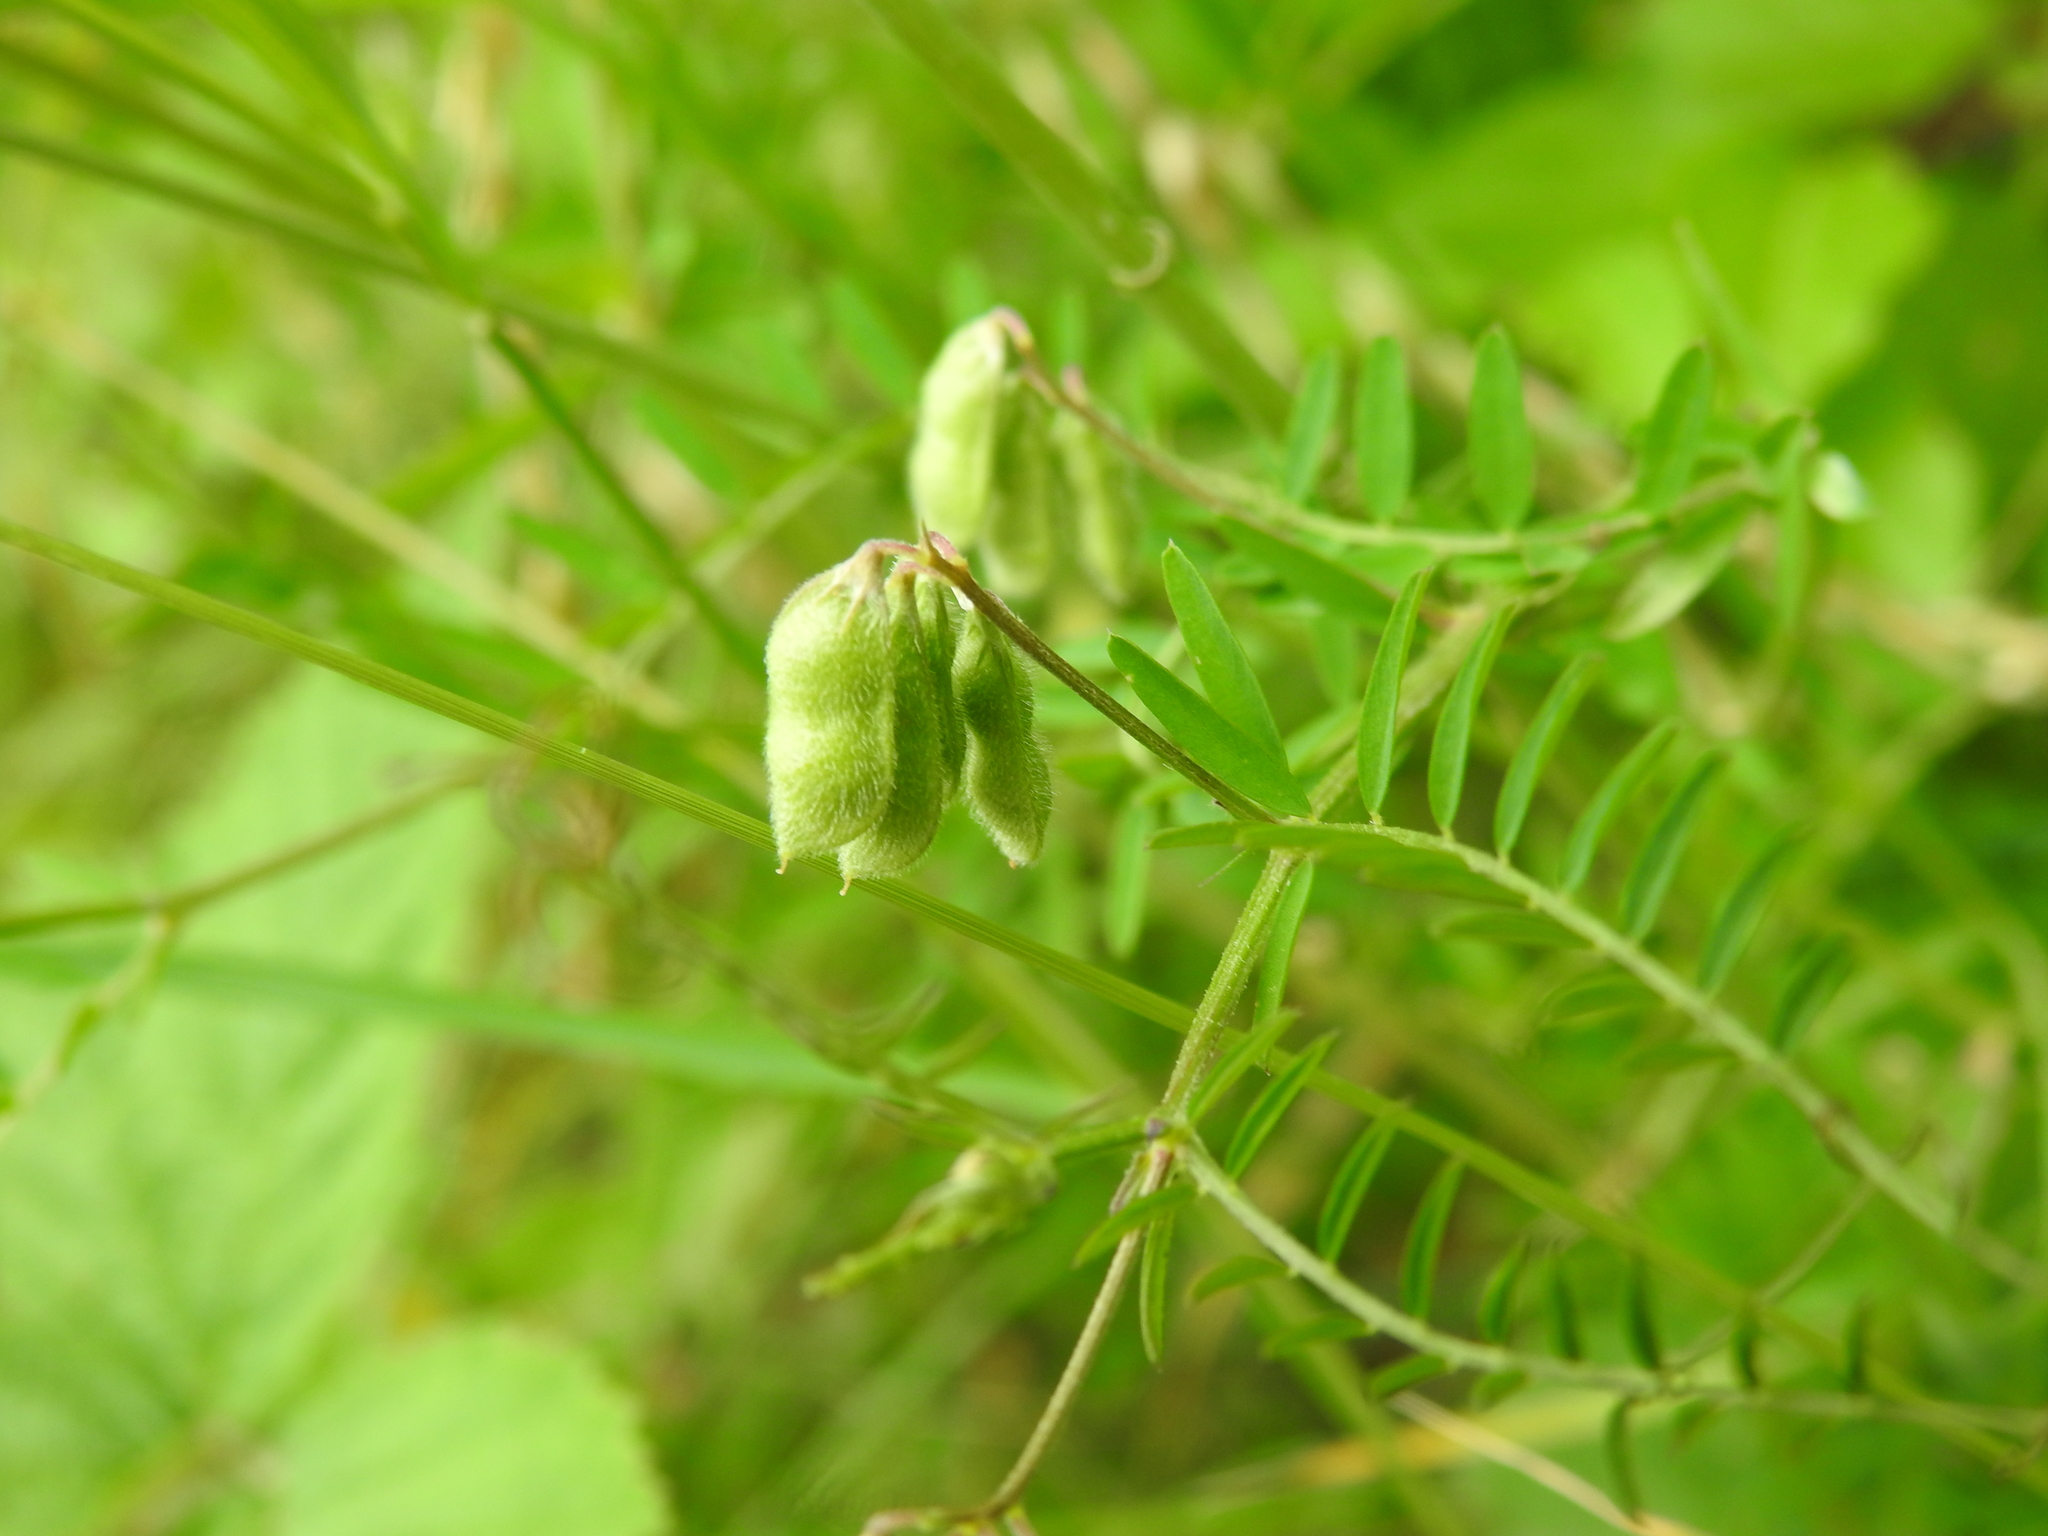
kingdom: Plantae
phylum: Tracheophyta
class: Magnoliopsida
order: Fabales
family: Fabaceae
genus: Vicia
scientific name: Vicia hirsuta
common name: Tiny vetch
